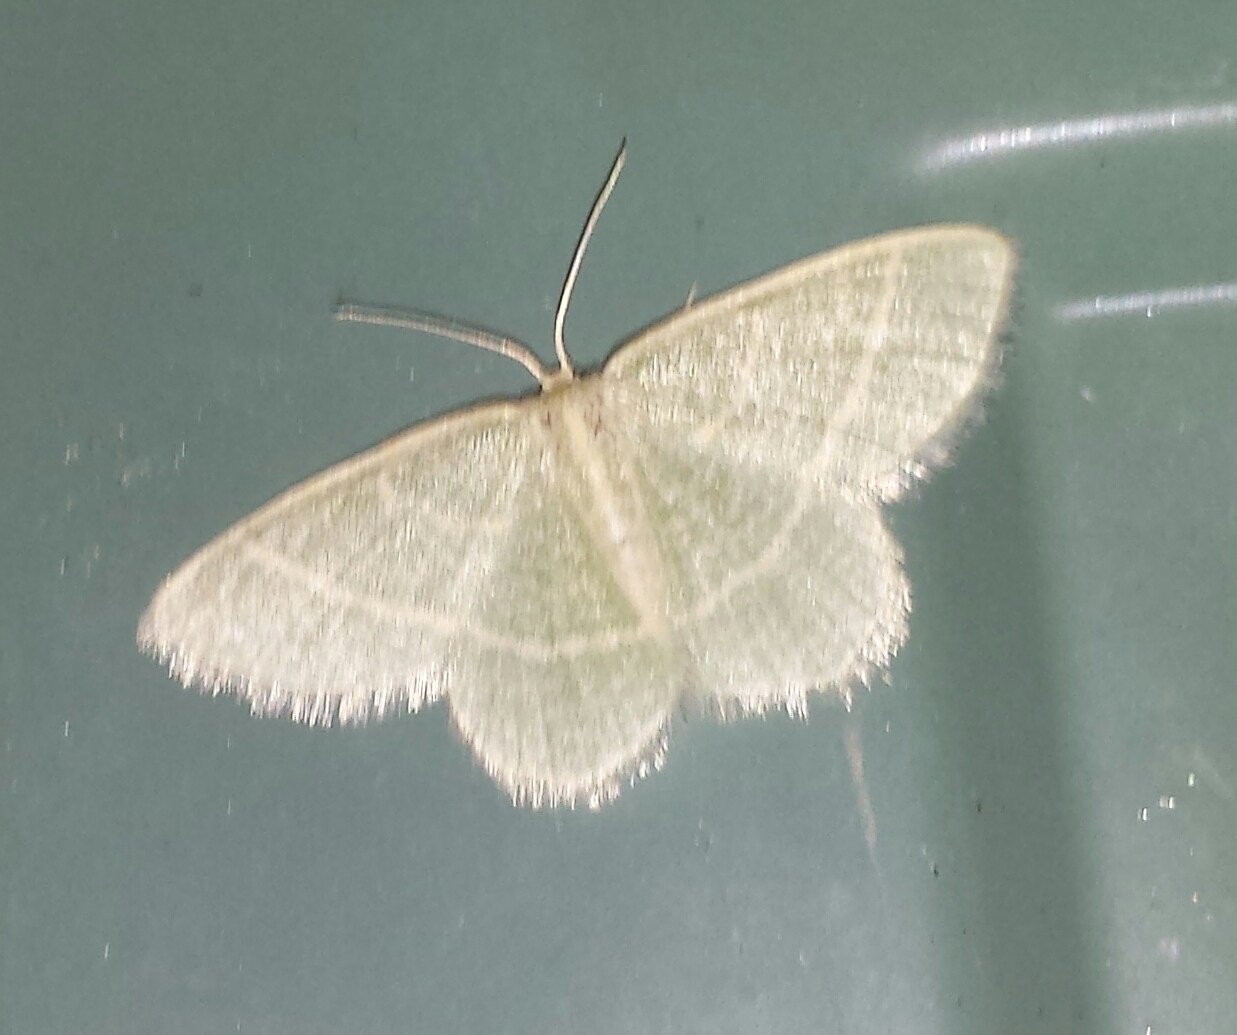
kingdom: Animalia
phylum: Arthropoda
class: Insecta
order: Lepidoptera
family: Geometridae
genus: Chlorochlamys
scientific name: Chlorochlamys chloroleucaria
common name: Blackberry looper
